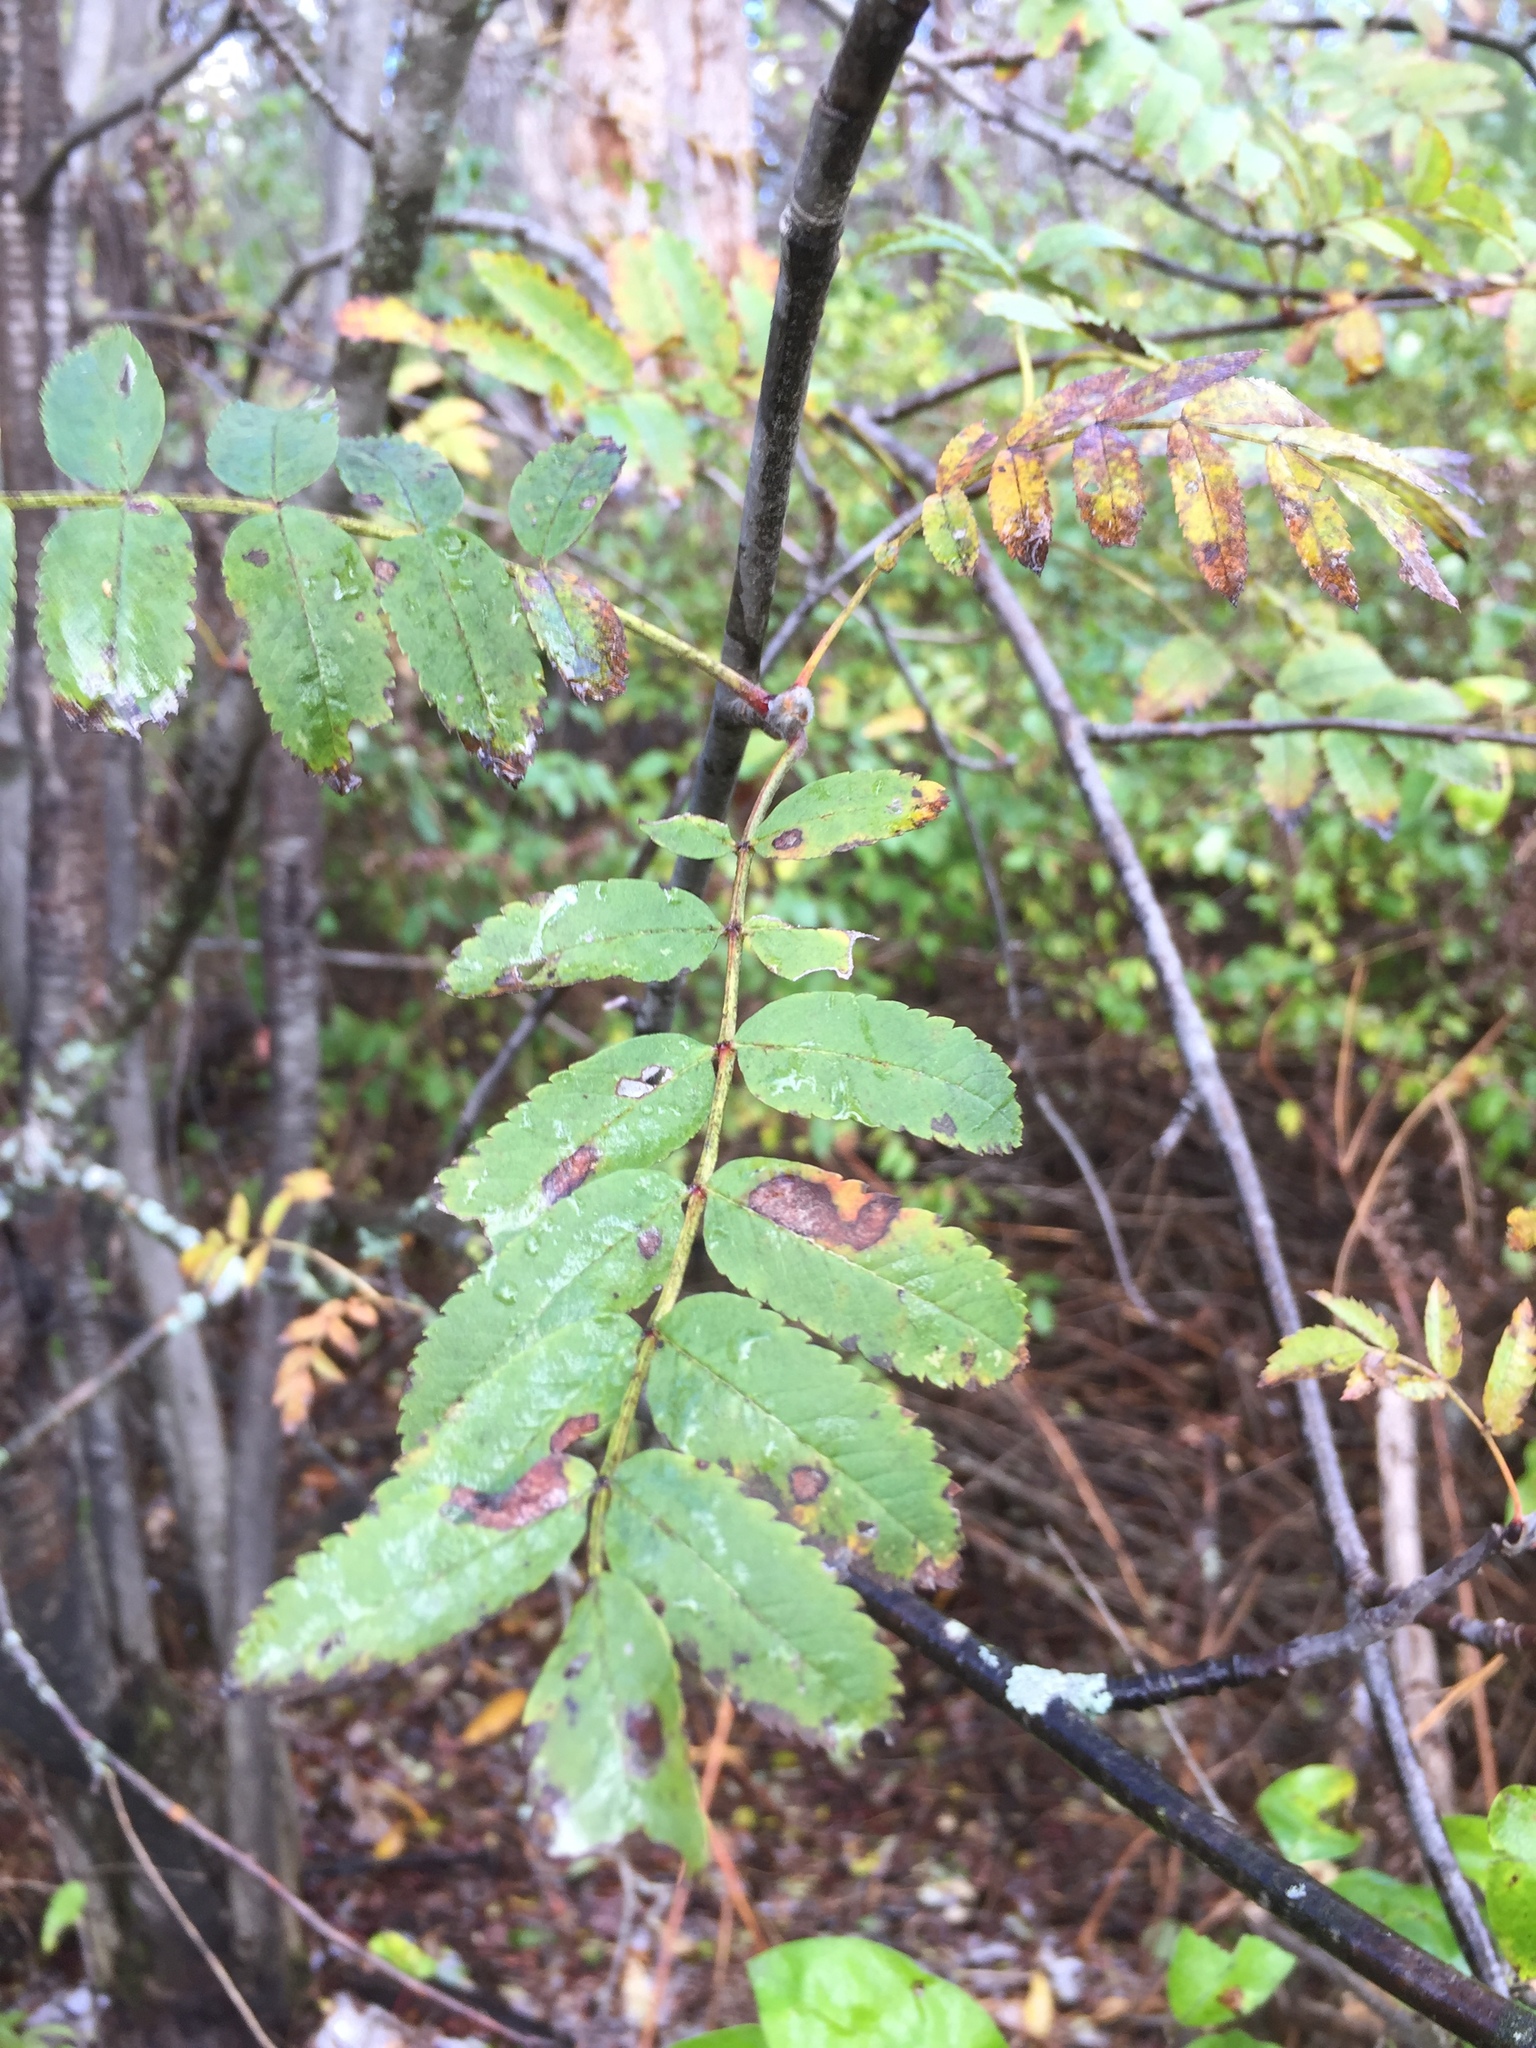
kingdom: Plantae
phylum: Tracheophyta
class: Magnoliopsida
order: Rosales
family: Rosaceae
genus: Sorbus
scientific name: Sorbus aucuparia
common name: Rowan
